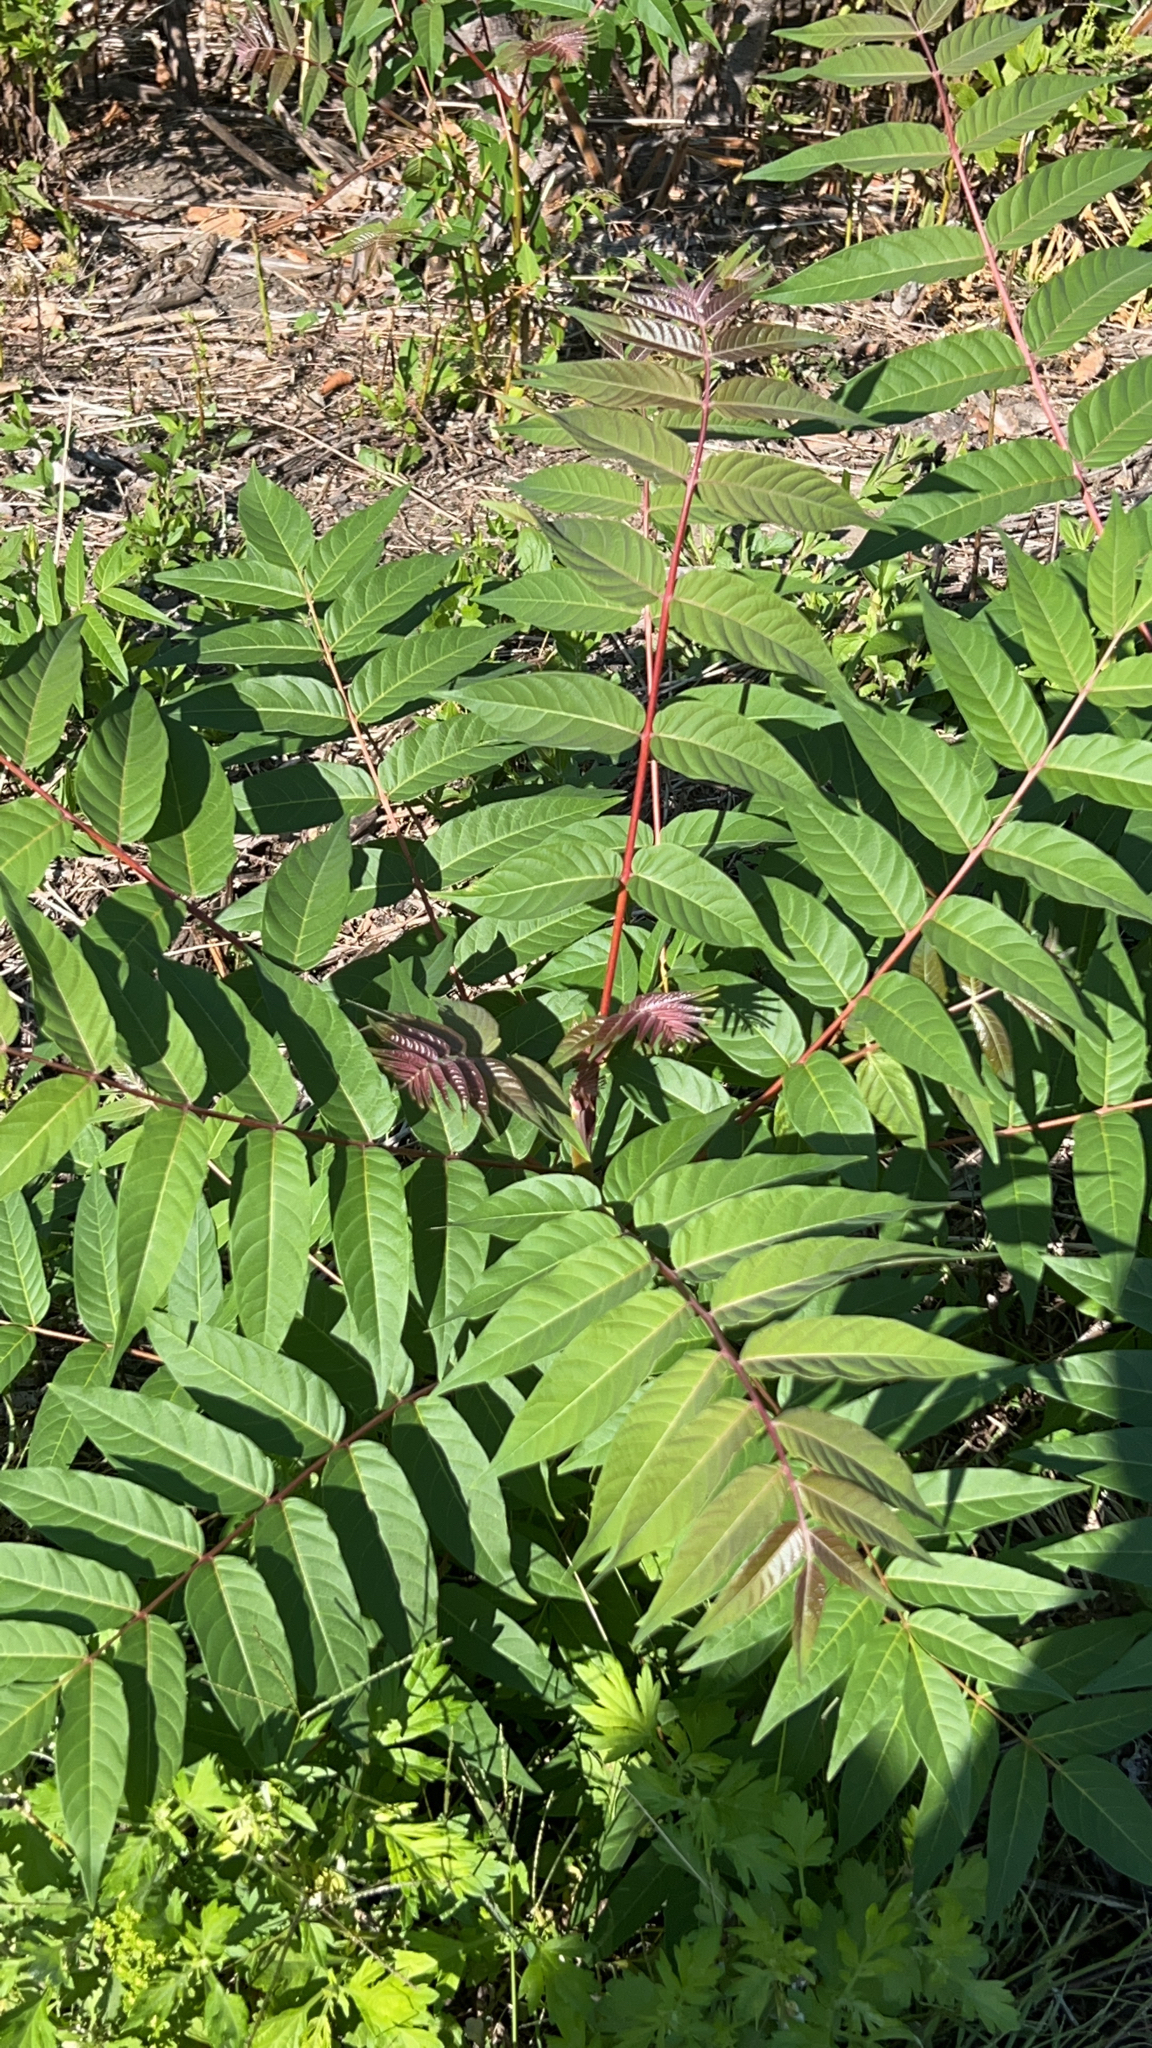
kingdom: Plantae
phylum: Tracheophyta
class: Magnoliopsida
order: Sapindales
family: Simaroubaceae
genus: Ailanthus
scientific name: Ailanthus altissima
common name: Tree-of-heaven
